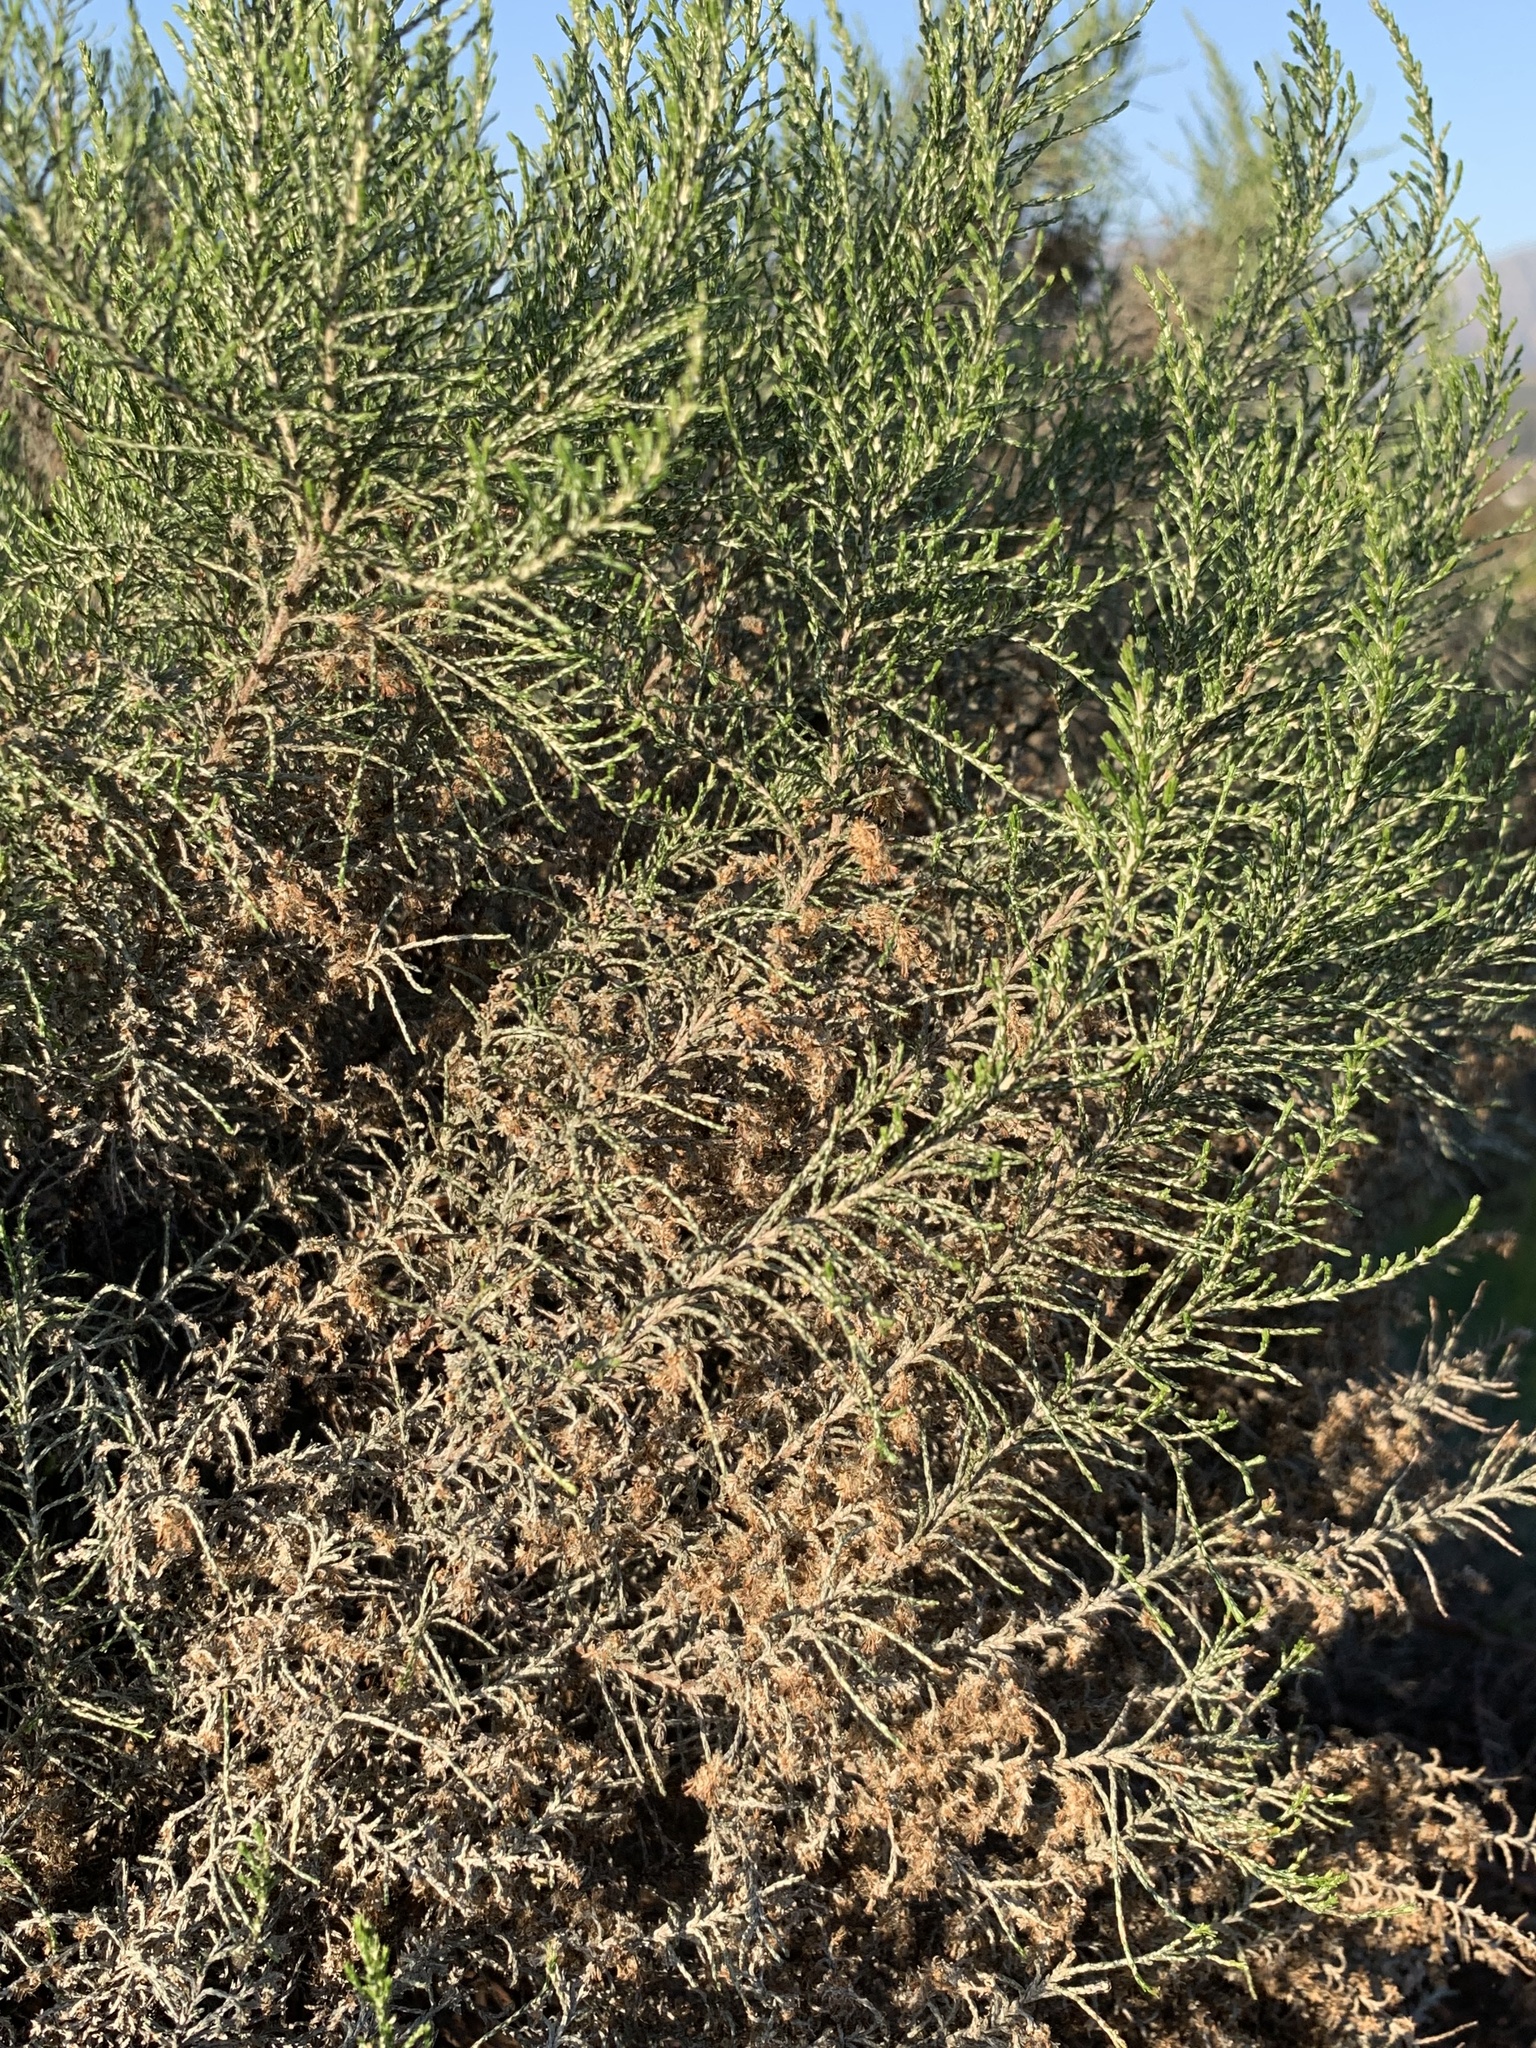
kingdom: Plantae
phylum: Tracheophyta
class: Magnoliopsida
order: Asterales
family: Asteraceae
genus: Dicerothamnus
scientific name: Dicerothamnus rhinocerotis
